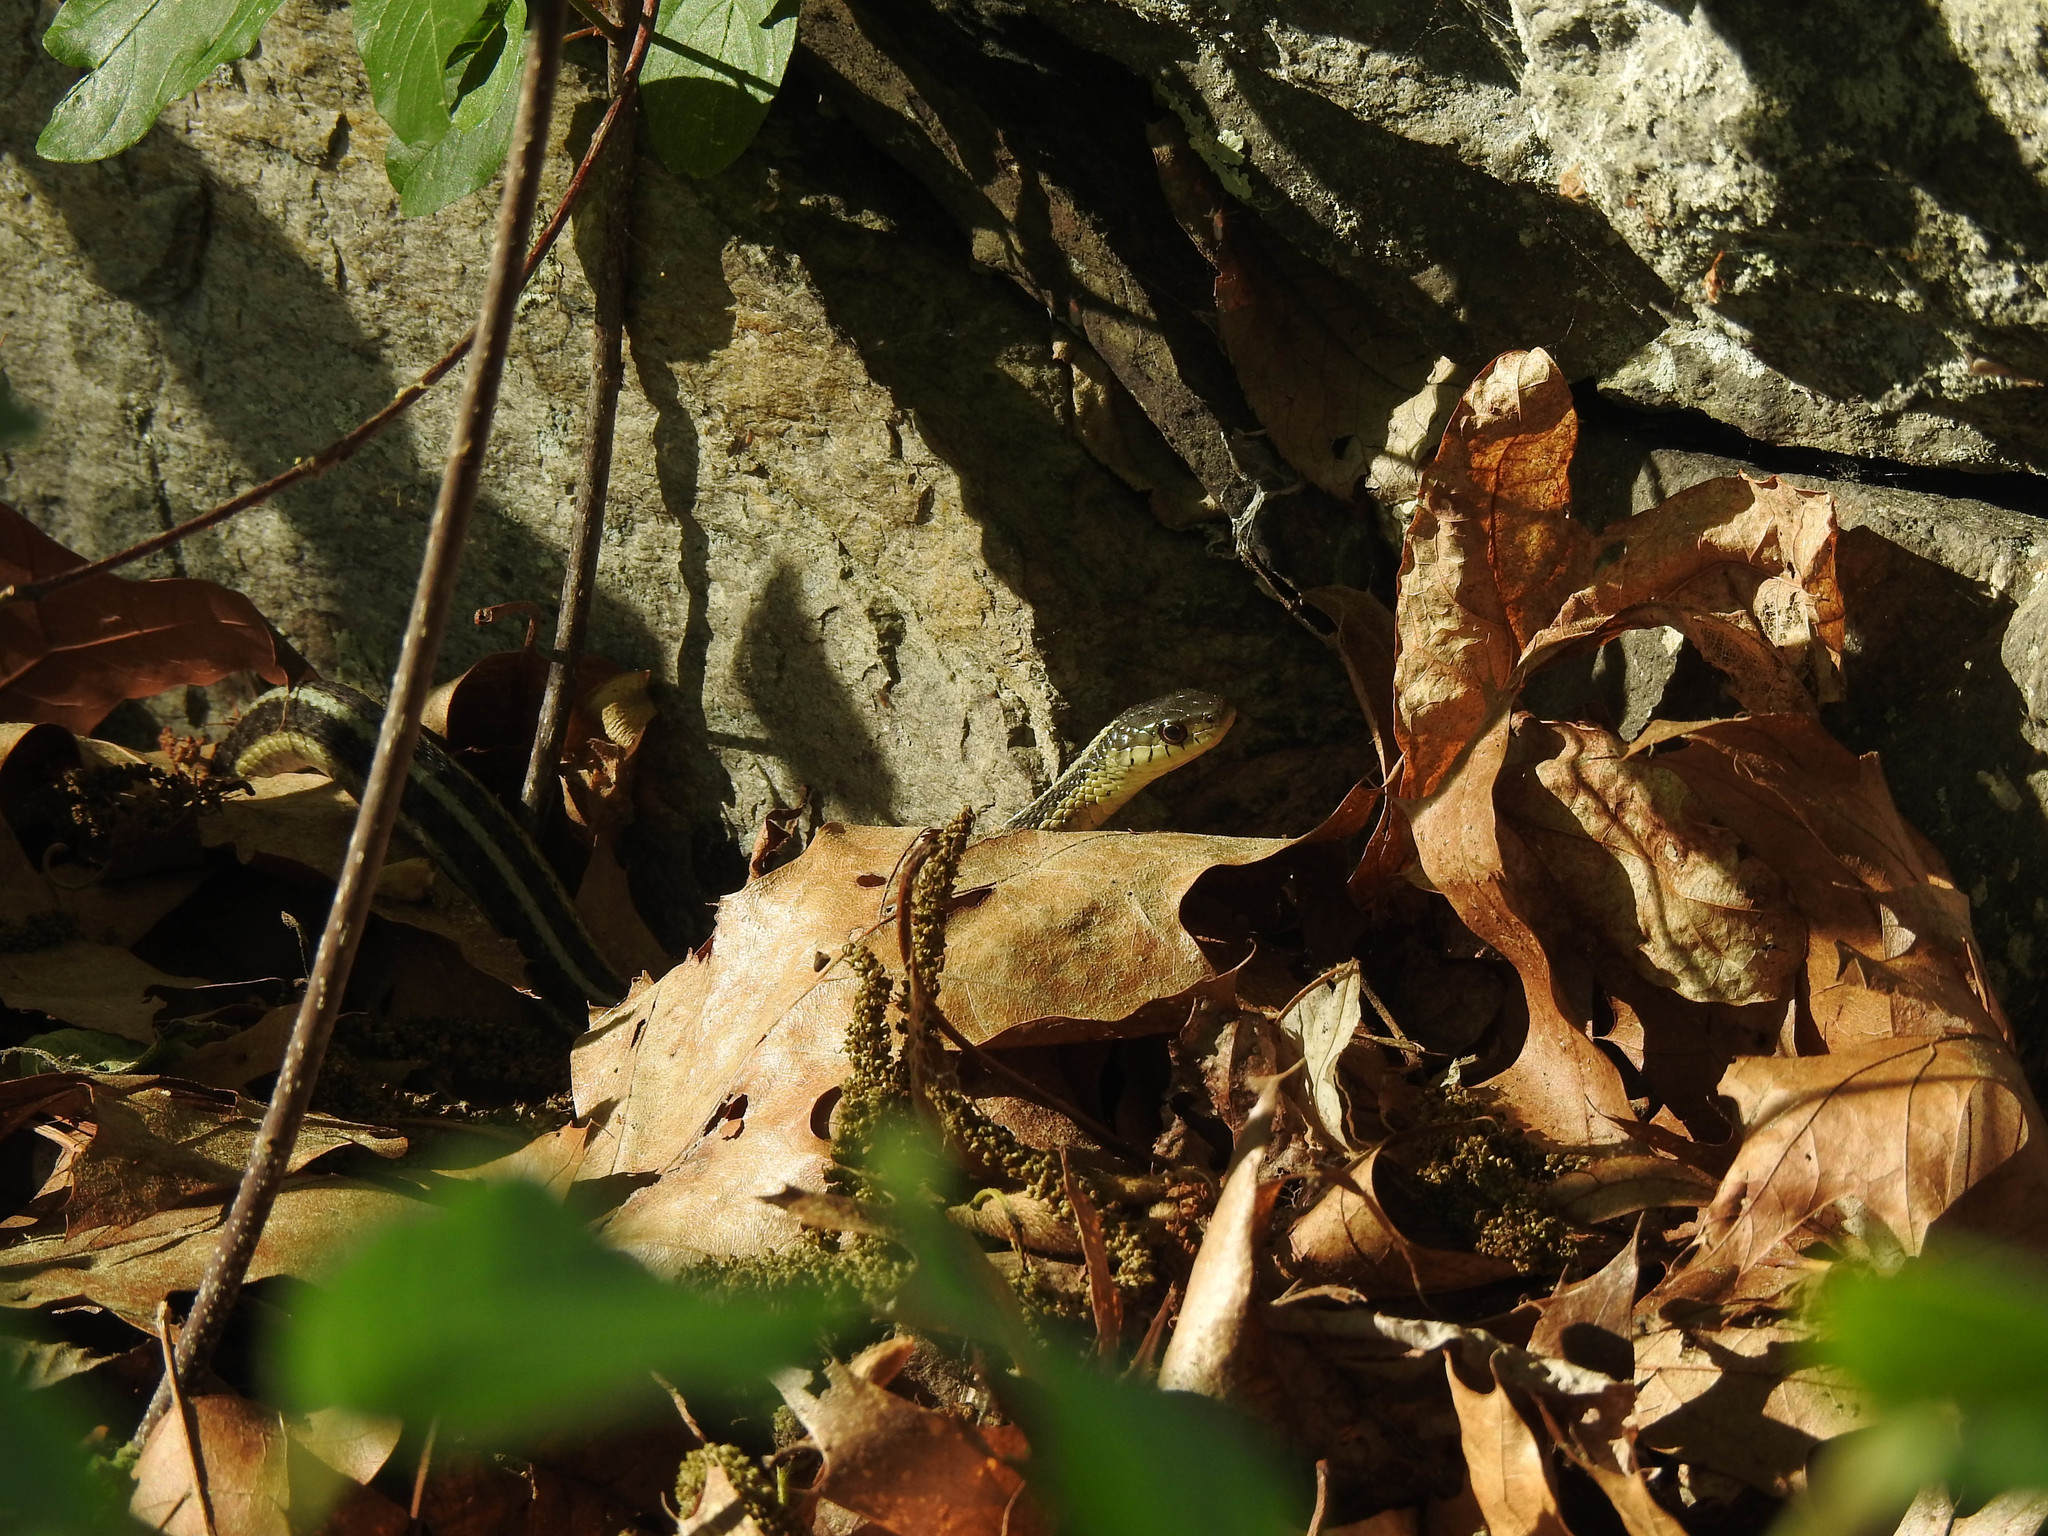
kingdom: Animalia
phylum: Chordata
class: Squamata
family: Colubridae
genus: Thamnophis
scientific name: Thamnophis sirtalis
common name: Common garter snake
